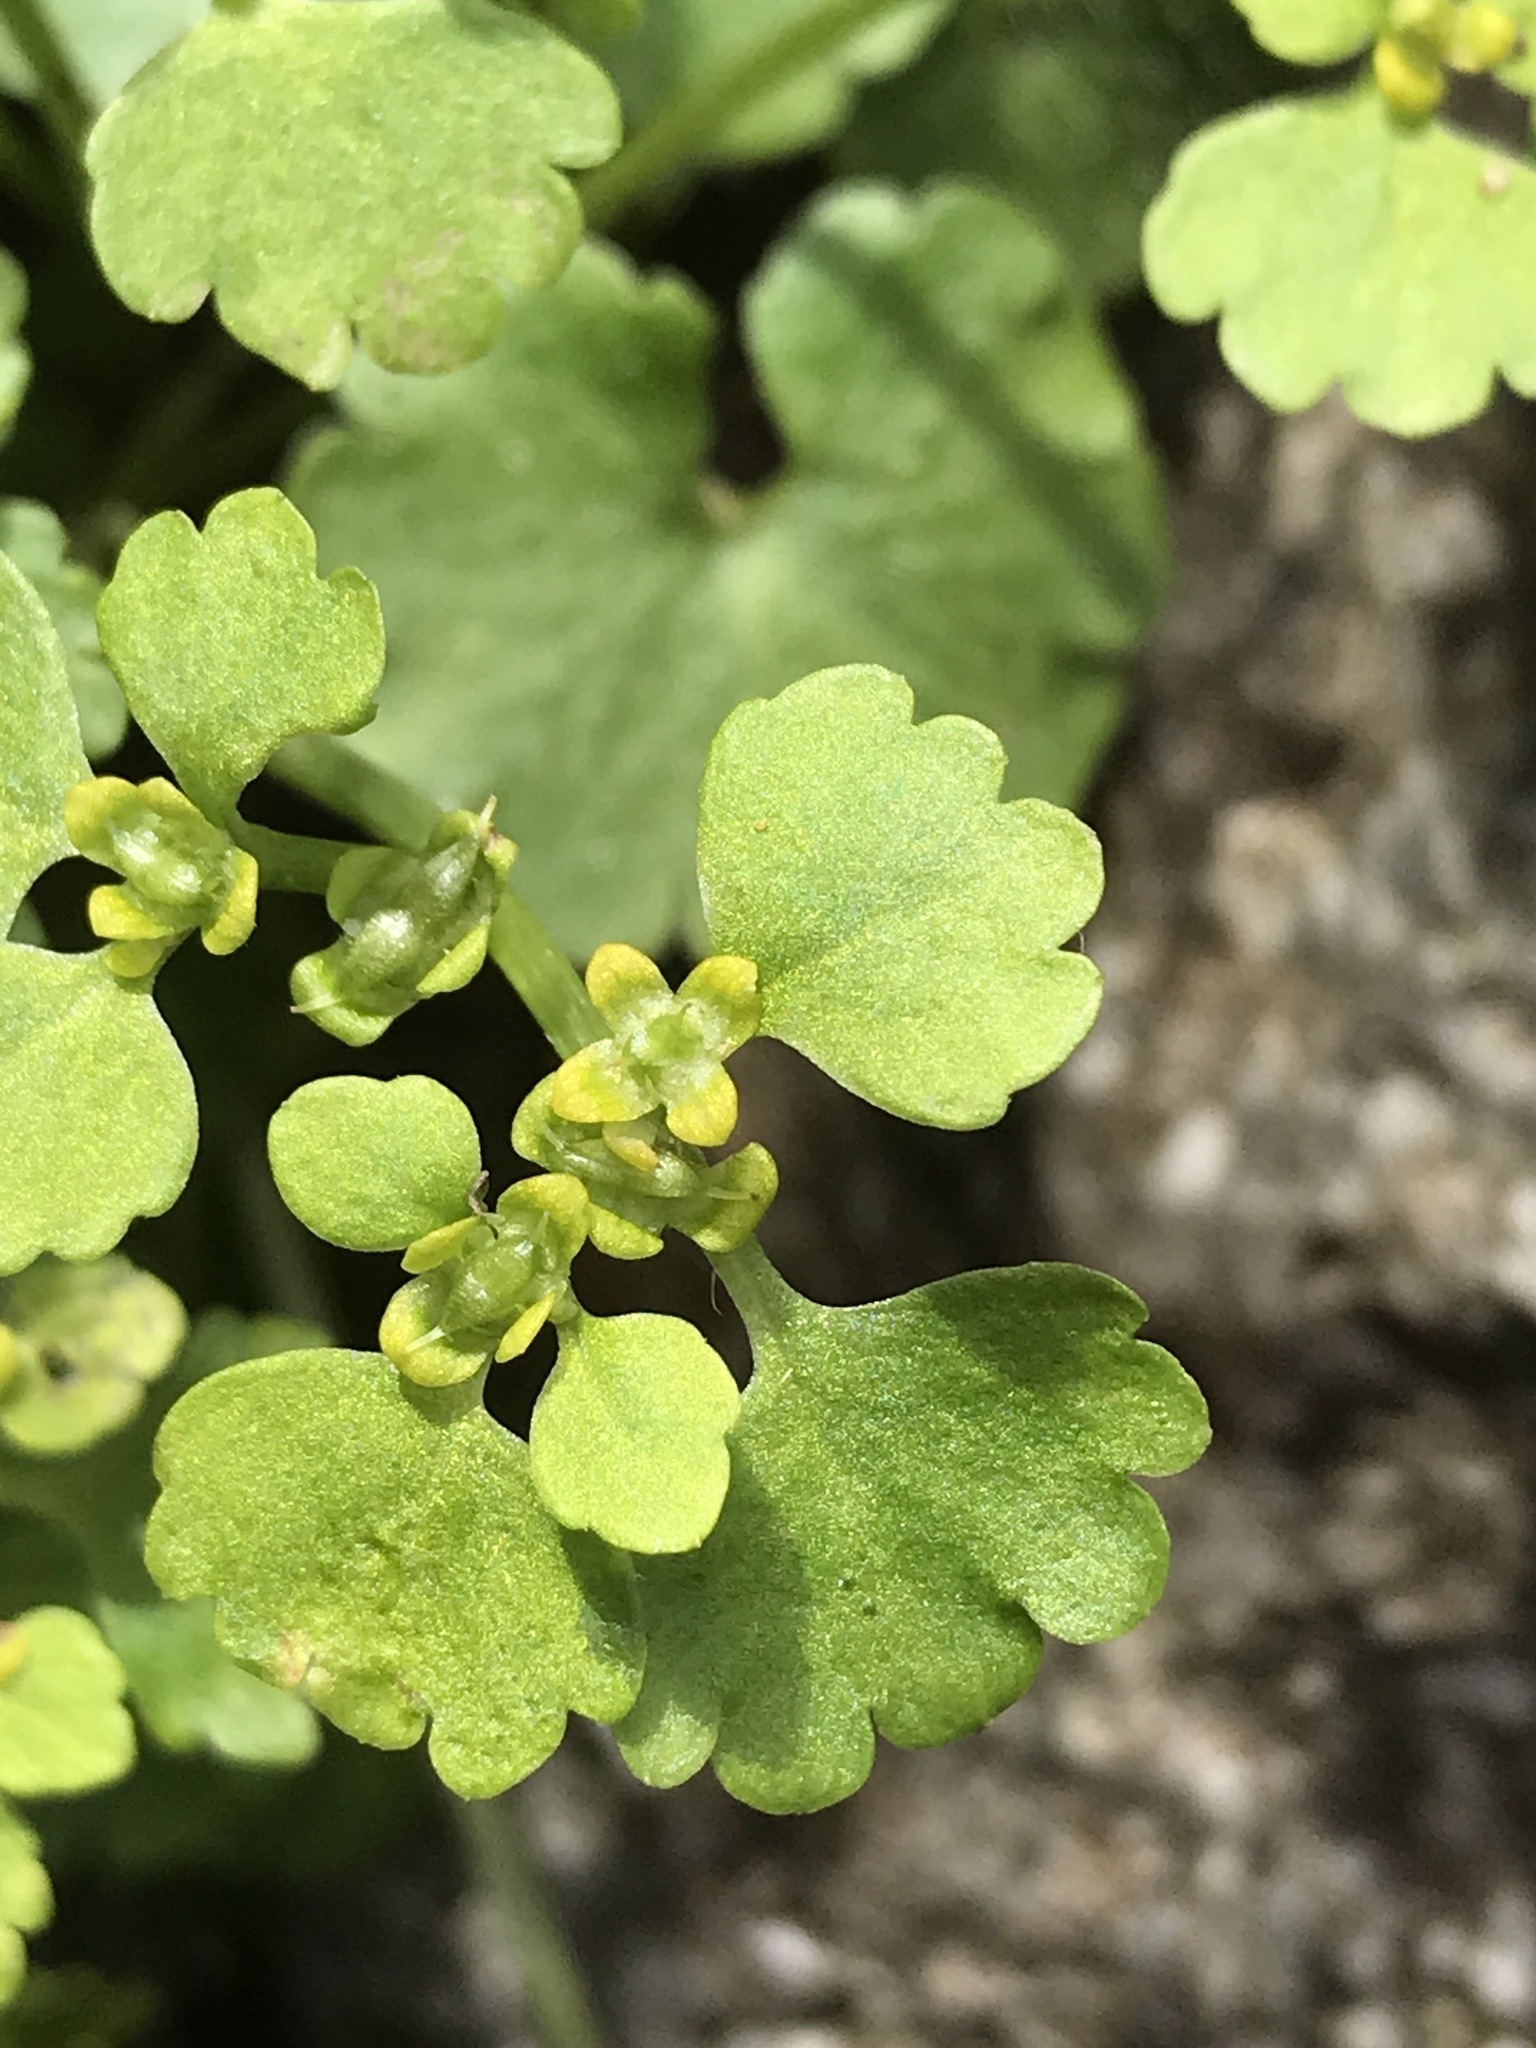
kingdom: Plantae
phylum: Tracheophyta
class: Magnoliopsida
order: Saxifragales
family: Saxifragaceae
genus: Chrysosplenium
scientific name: Chrysosplenium alternifolium
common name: Alternate-leaved golden-saxifrage
